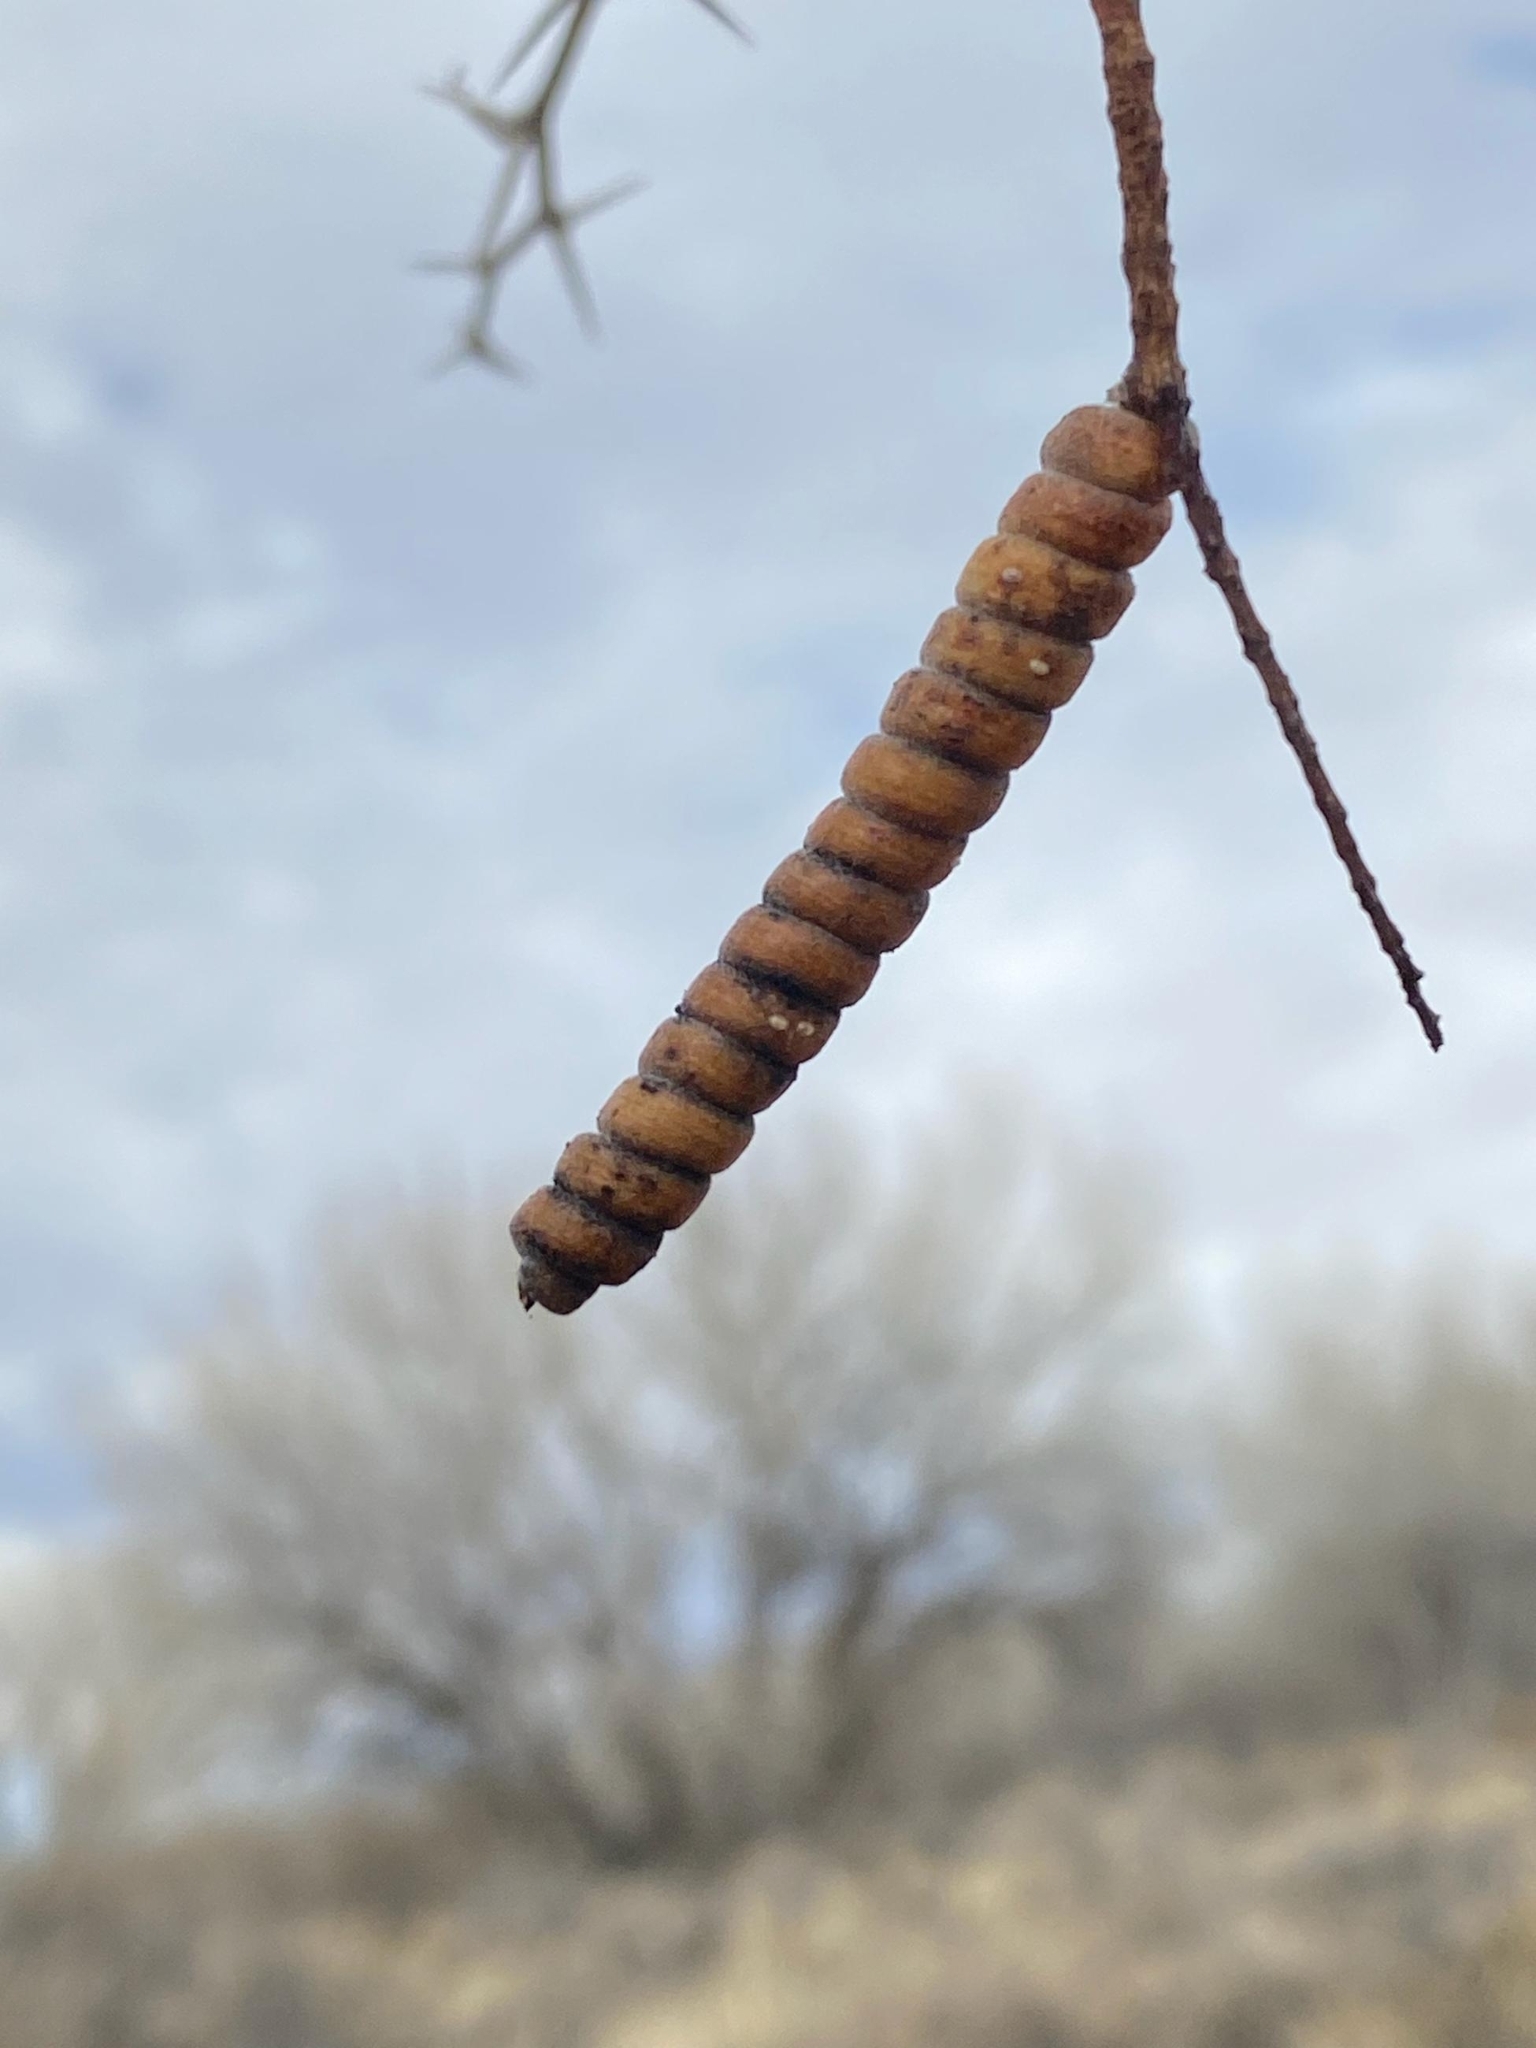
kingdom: Plantae
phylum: Tracheophyta
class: Magnoliopsida
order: Fabales
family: Fabaceae
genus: Prosopis
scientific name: Prosopis pubescens
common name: Screw-bean
